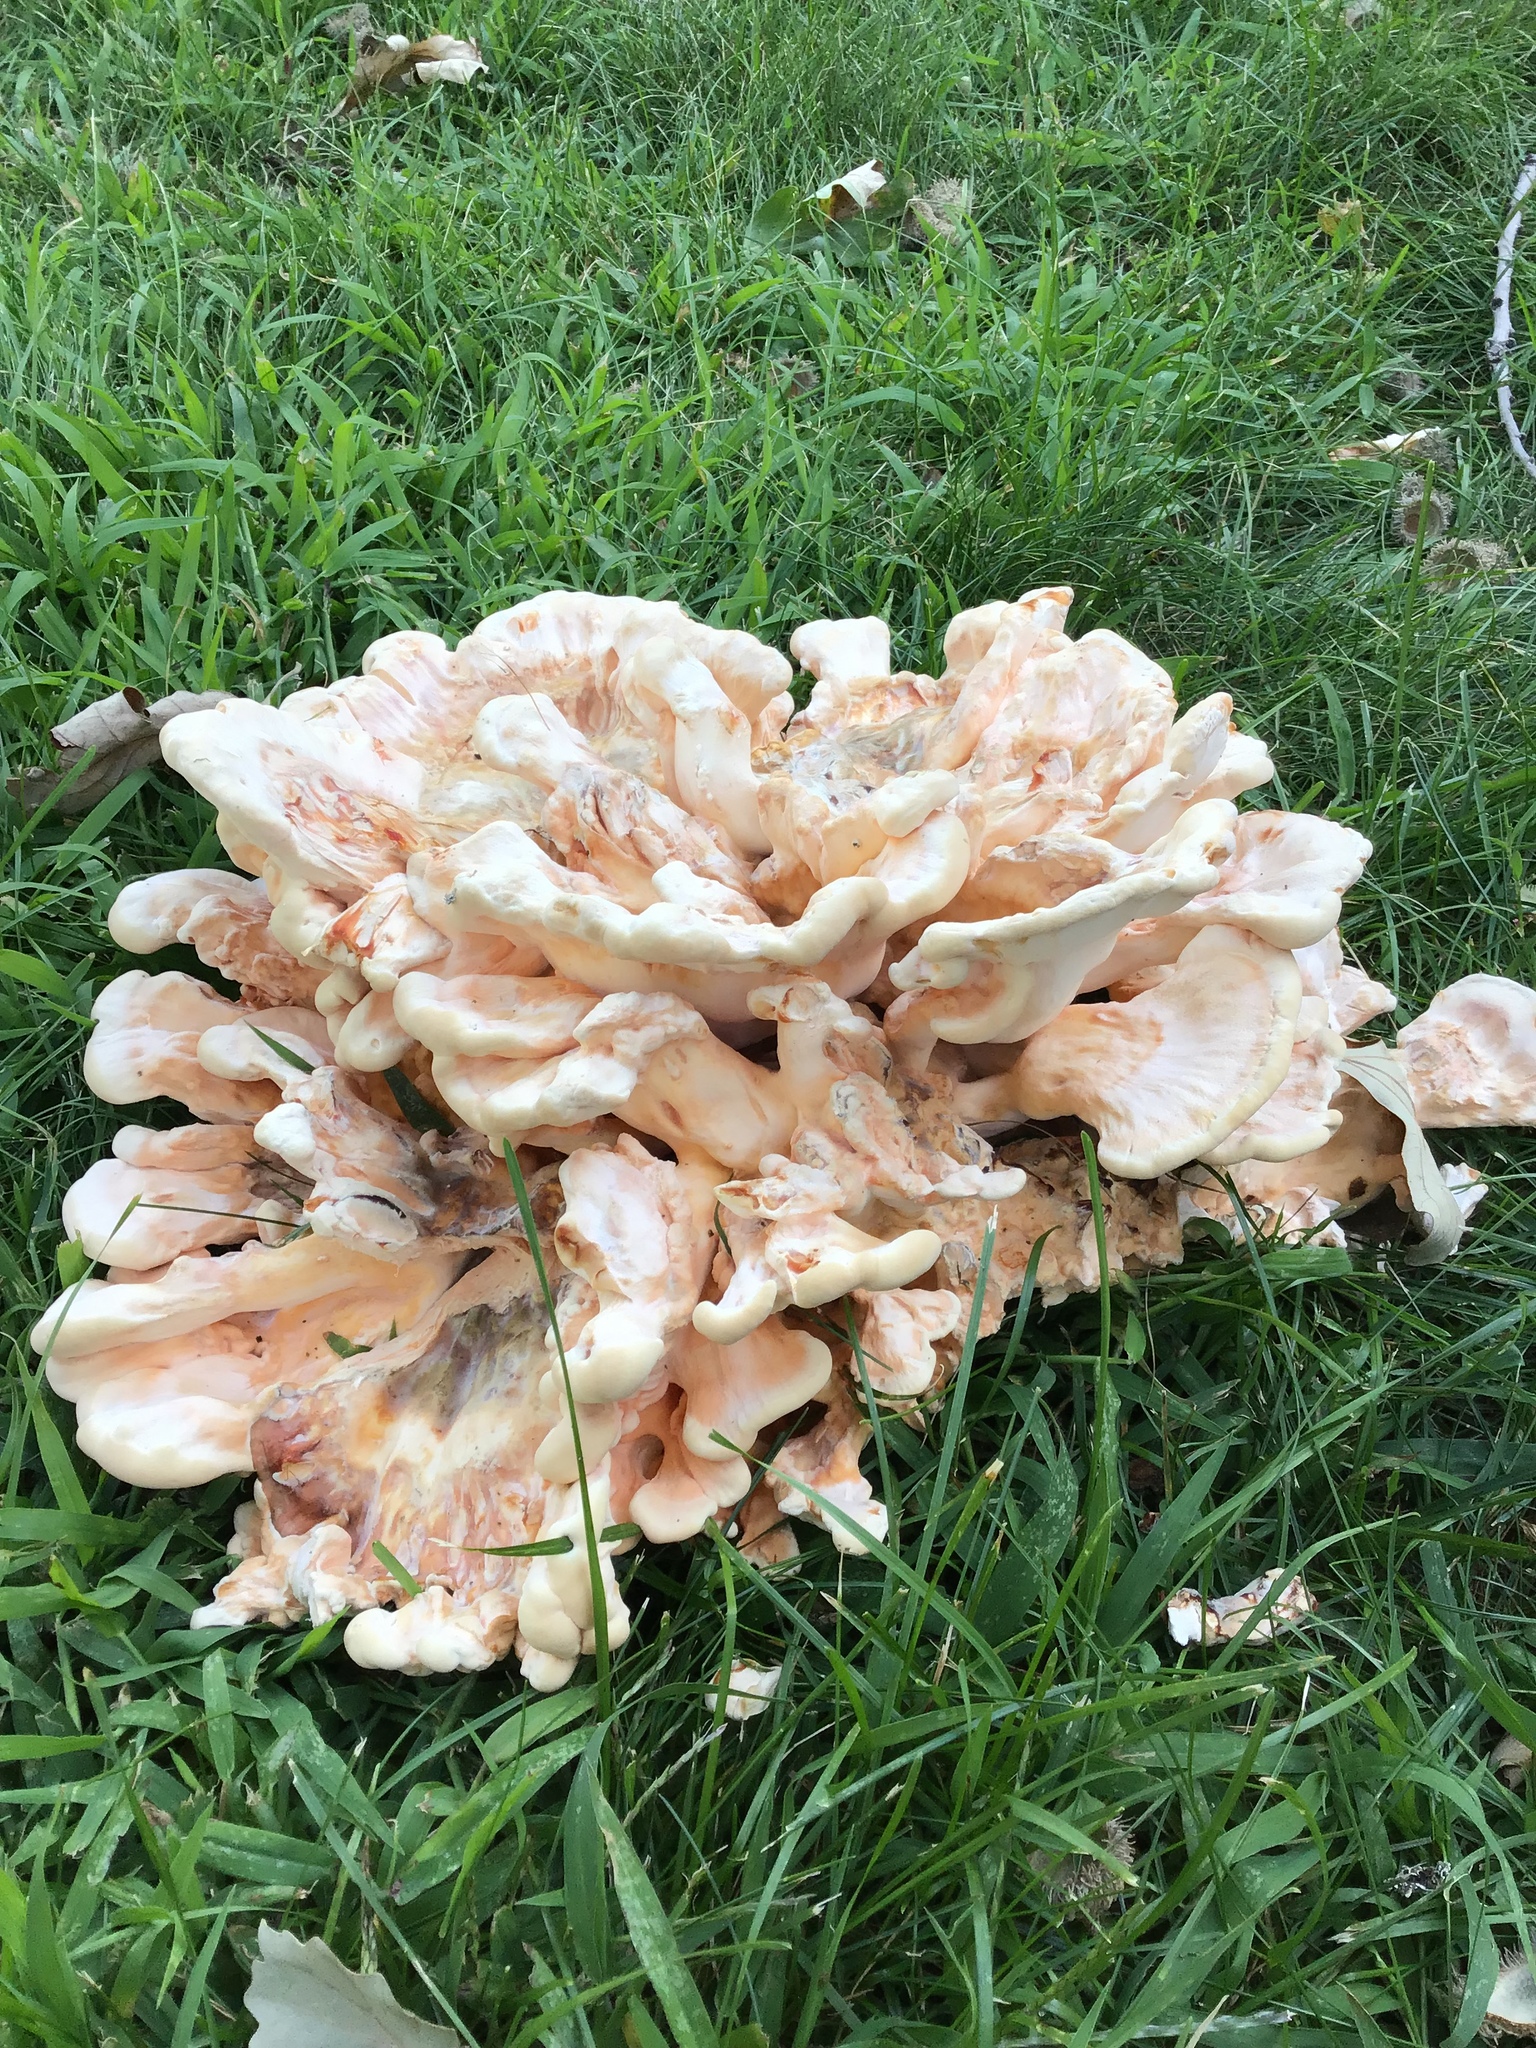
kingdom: Fungi
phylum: Basidiomycota
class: Agaricomycetes
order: Polyporales
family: Laetiporaceae
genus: Laetiporus
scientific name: Laetiporus sulphureus
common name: Chicken of the woods
